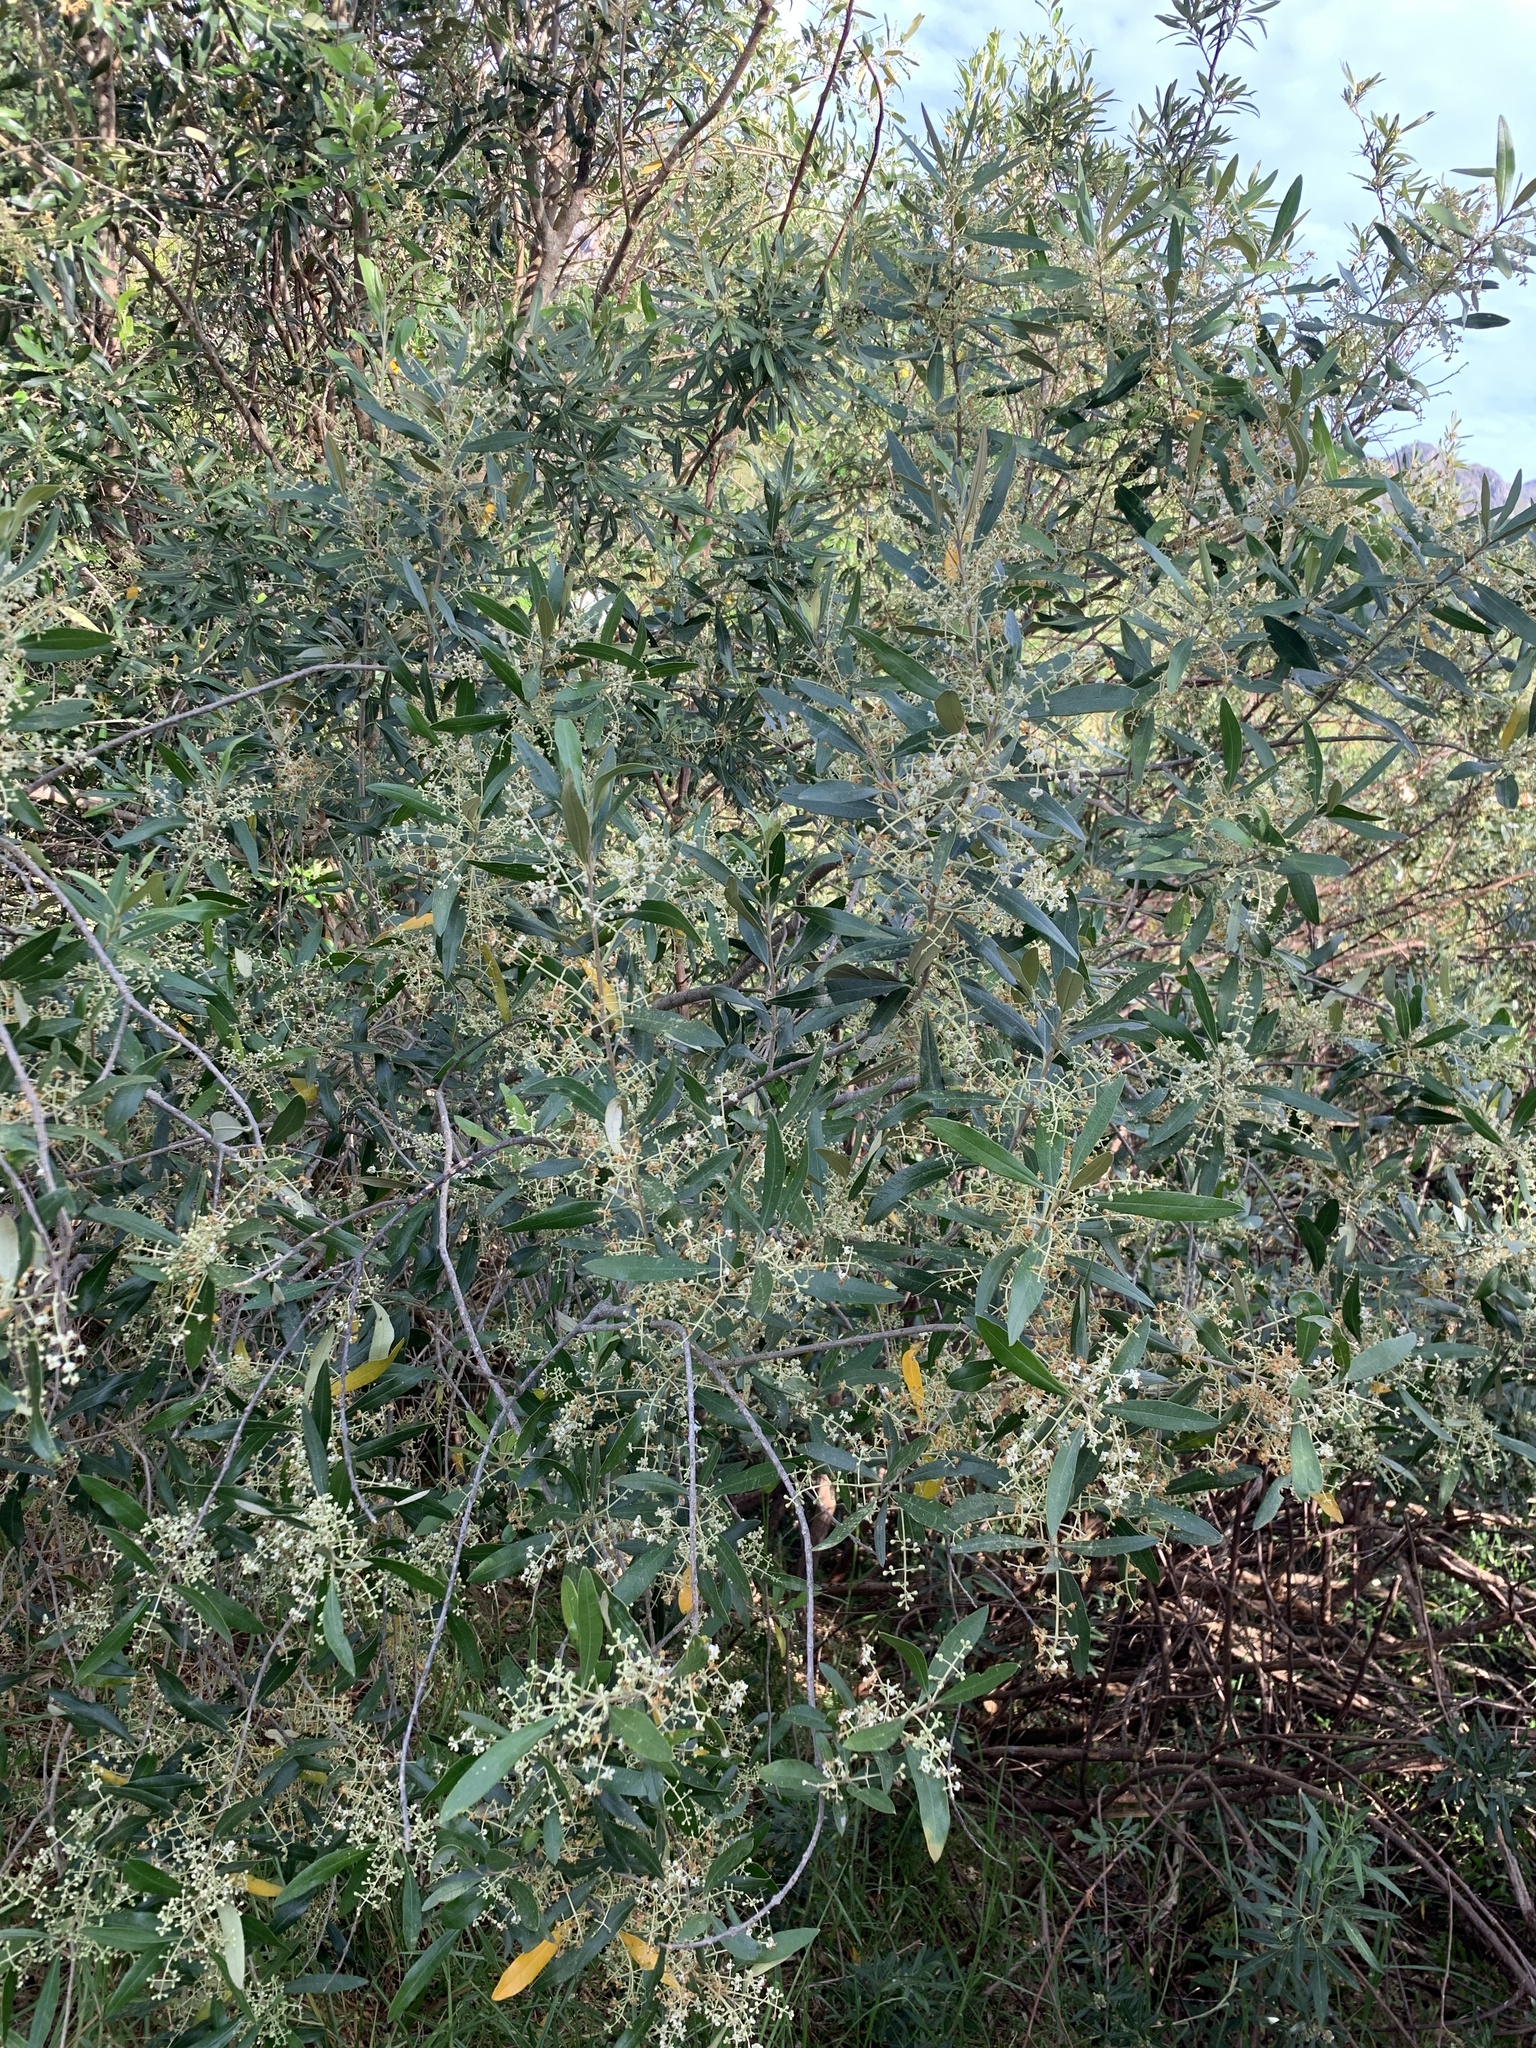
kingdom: Plantae
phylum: Tracheophyta
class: Magnoliopsida
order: Lamiales
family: Oleaceae
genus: Olea
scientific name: Olea europaea
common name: Olive
